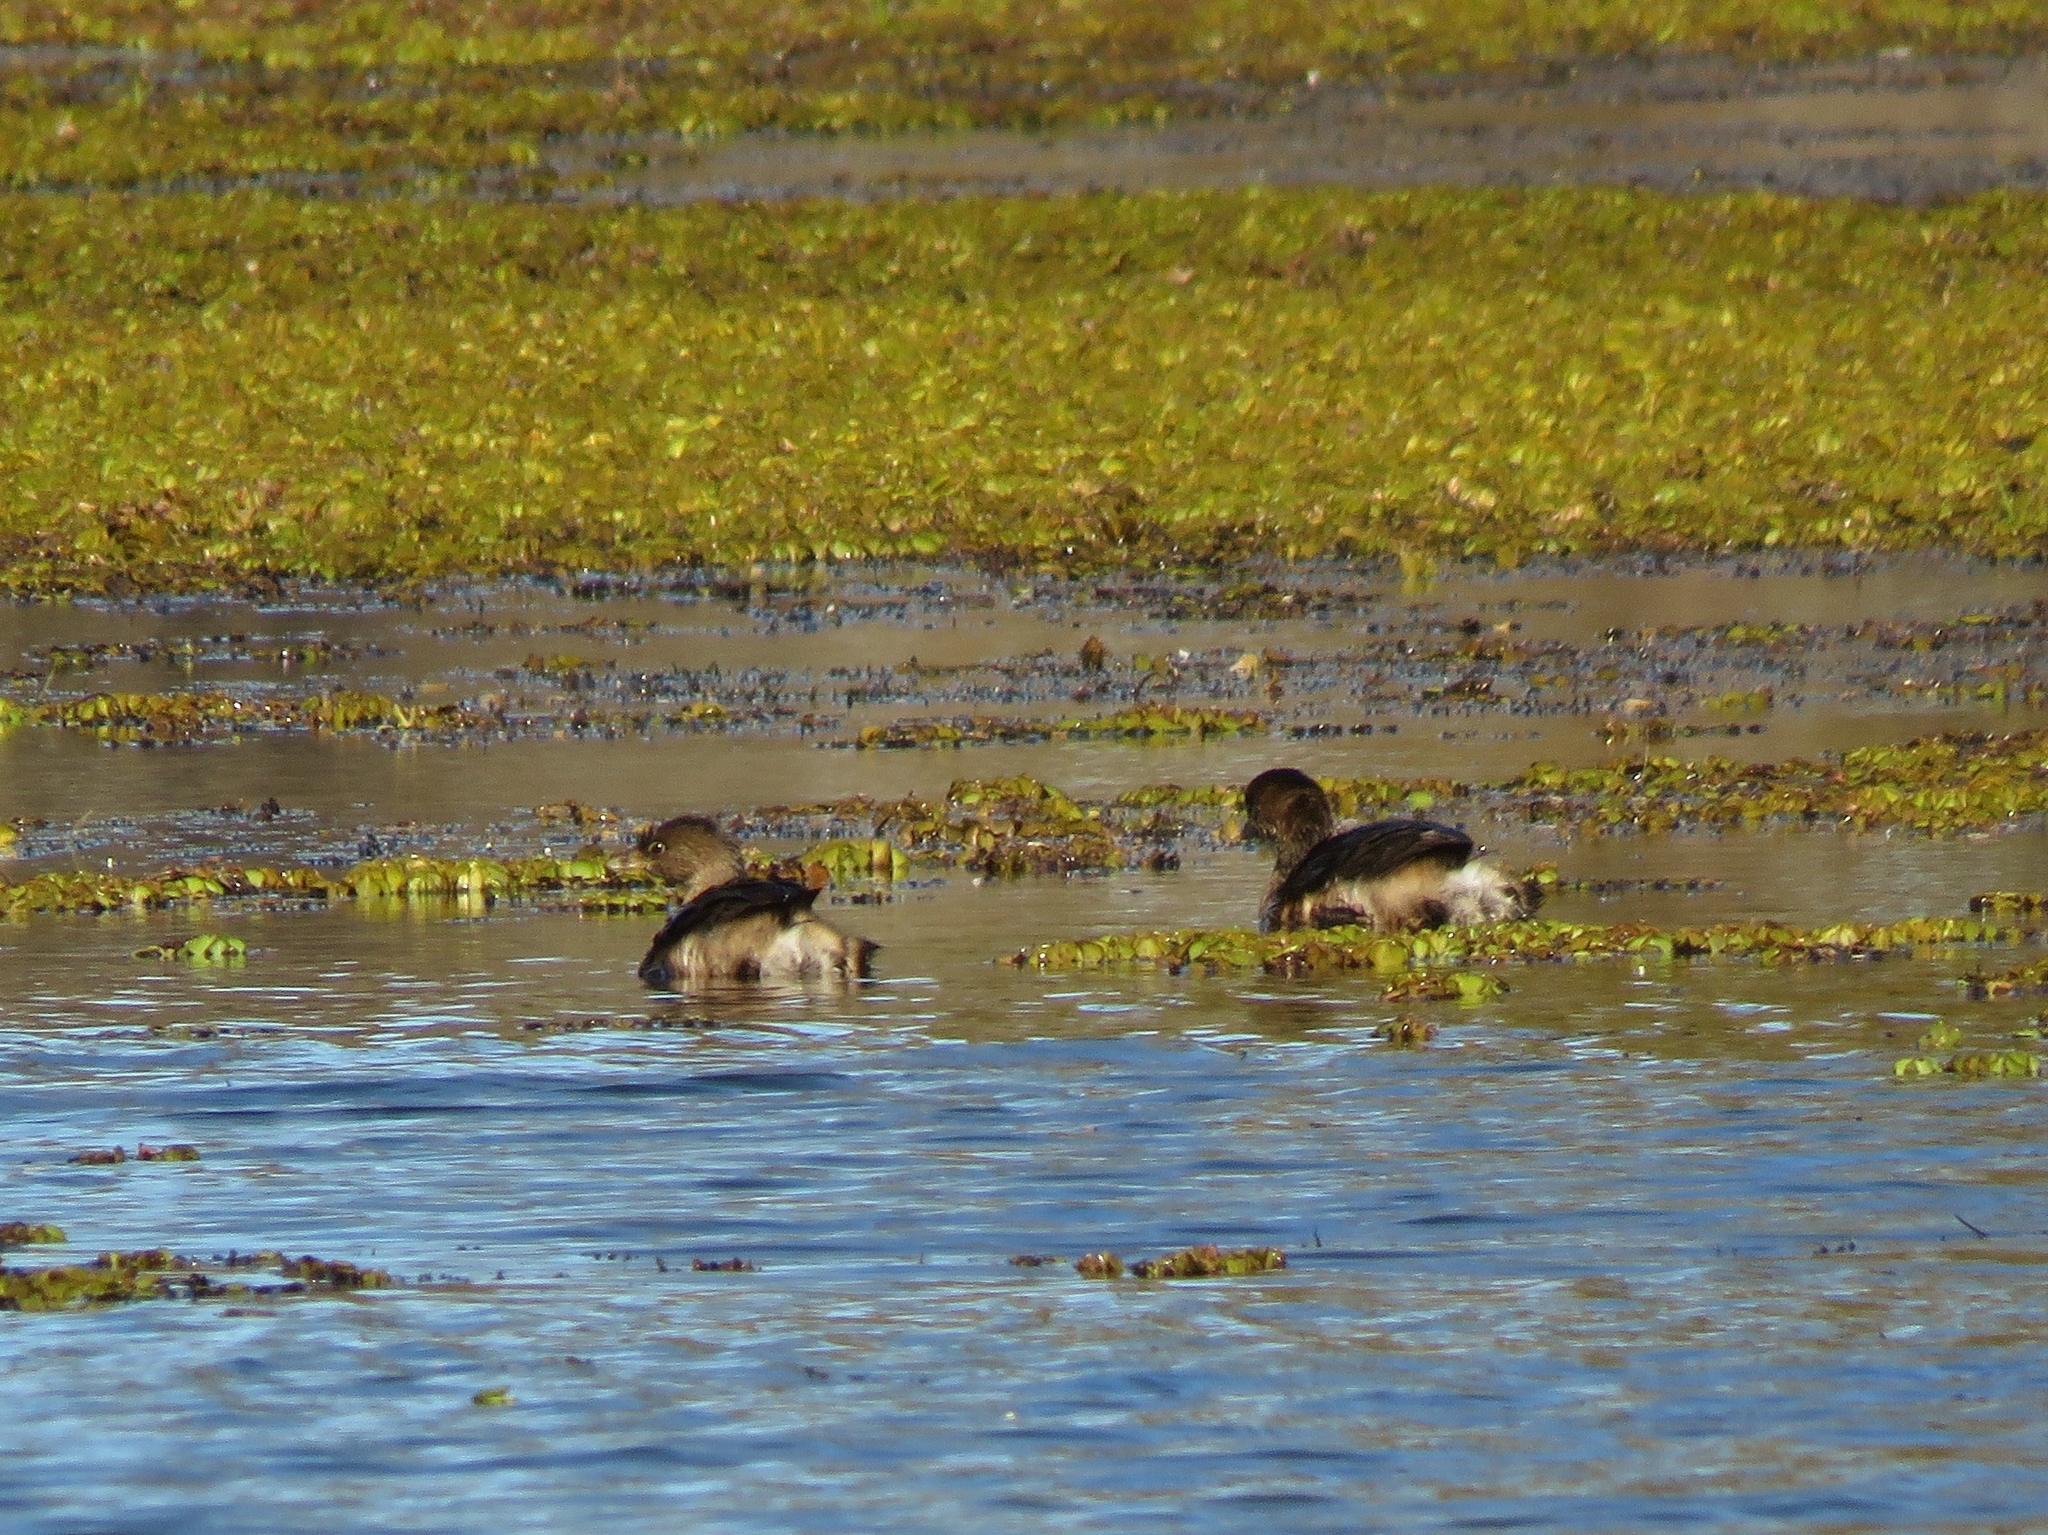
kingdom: Animalia
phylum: Chordata
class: Aves
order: Podicipediformes
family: Podicipedidae
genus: Podilymbus
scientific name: Podilymbus podiceps
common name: Pied-billed grebe
